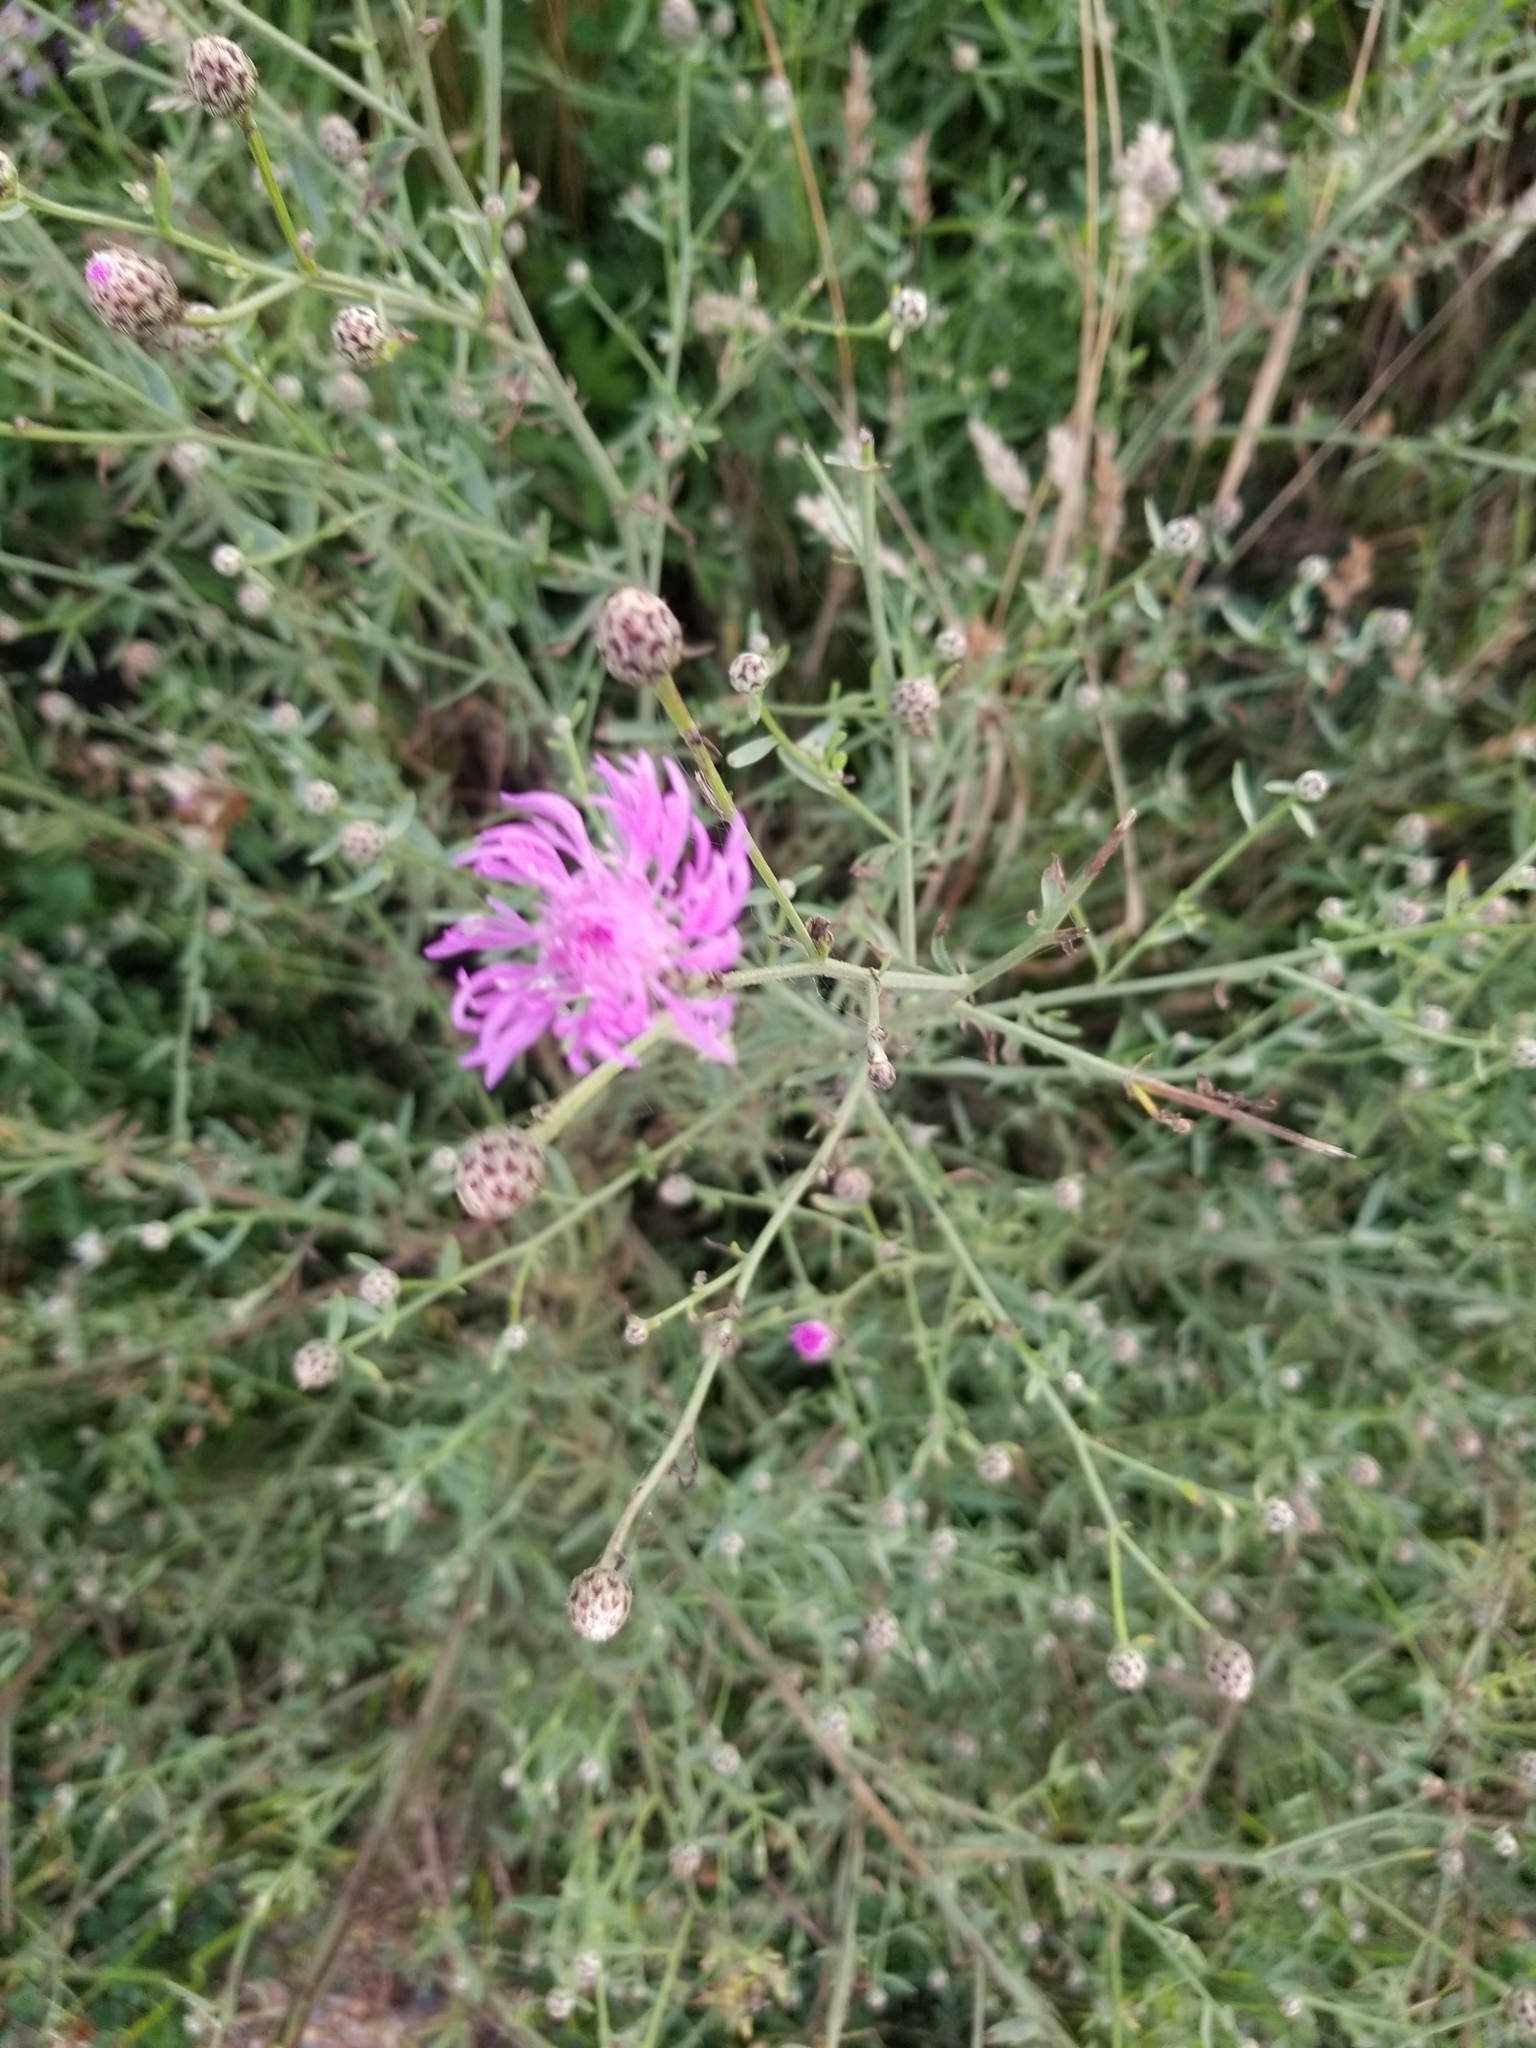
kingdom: Plantae
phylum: Tracheophyta
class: Magnoliopsida
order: Asterales
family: Asteraceae
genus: Centaurea
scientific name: Centaurea stoebe
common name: Spotted knapweed
